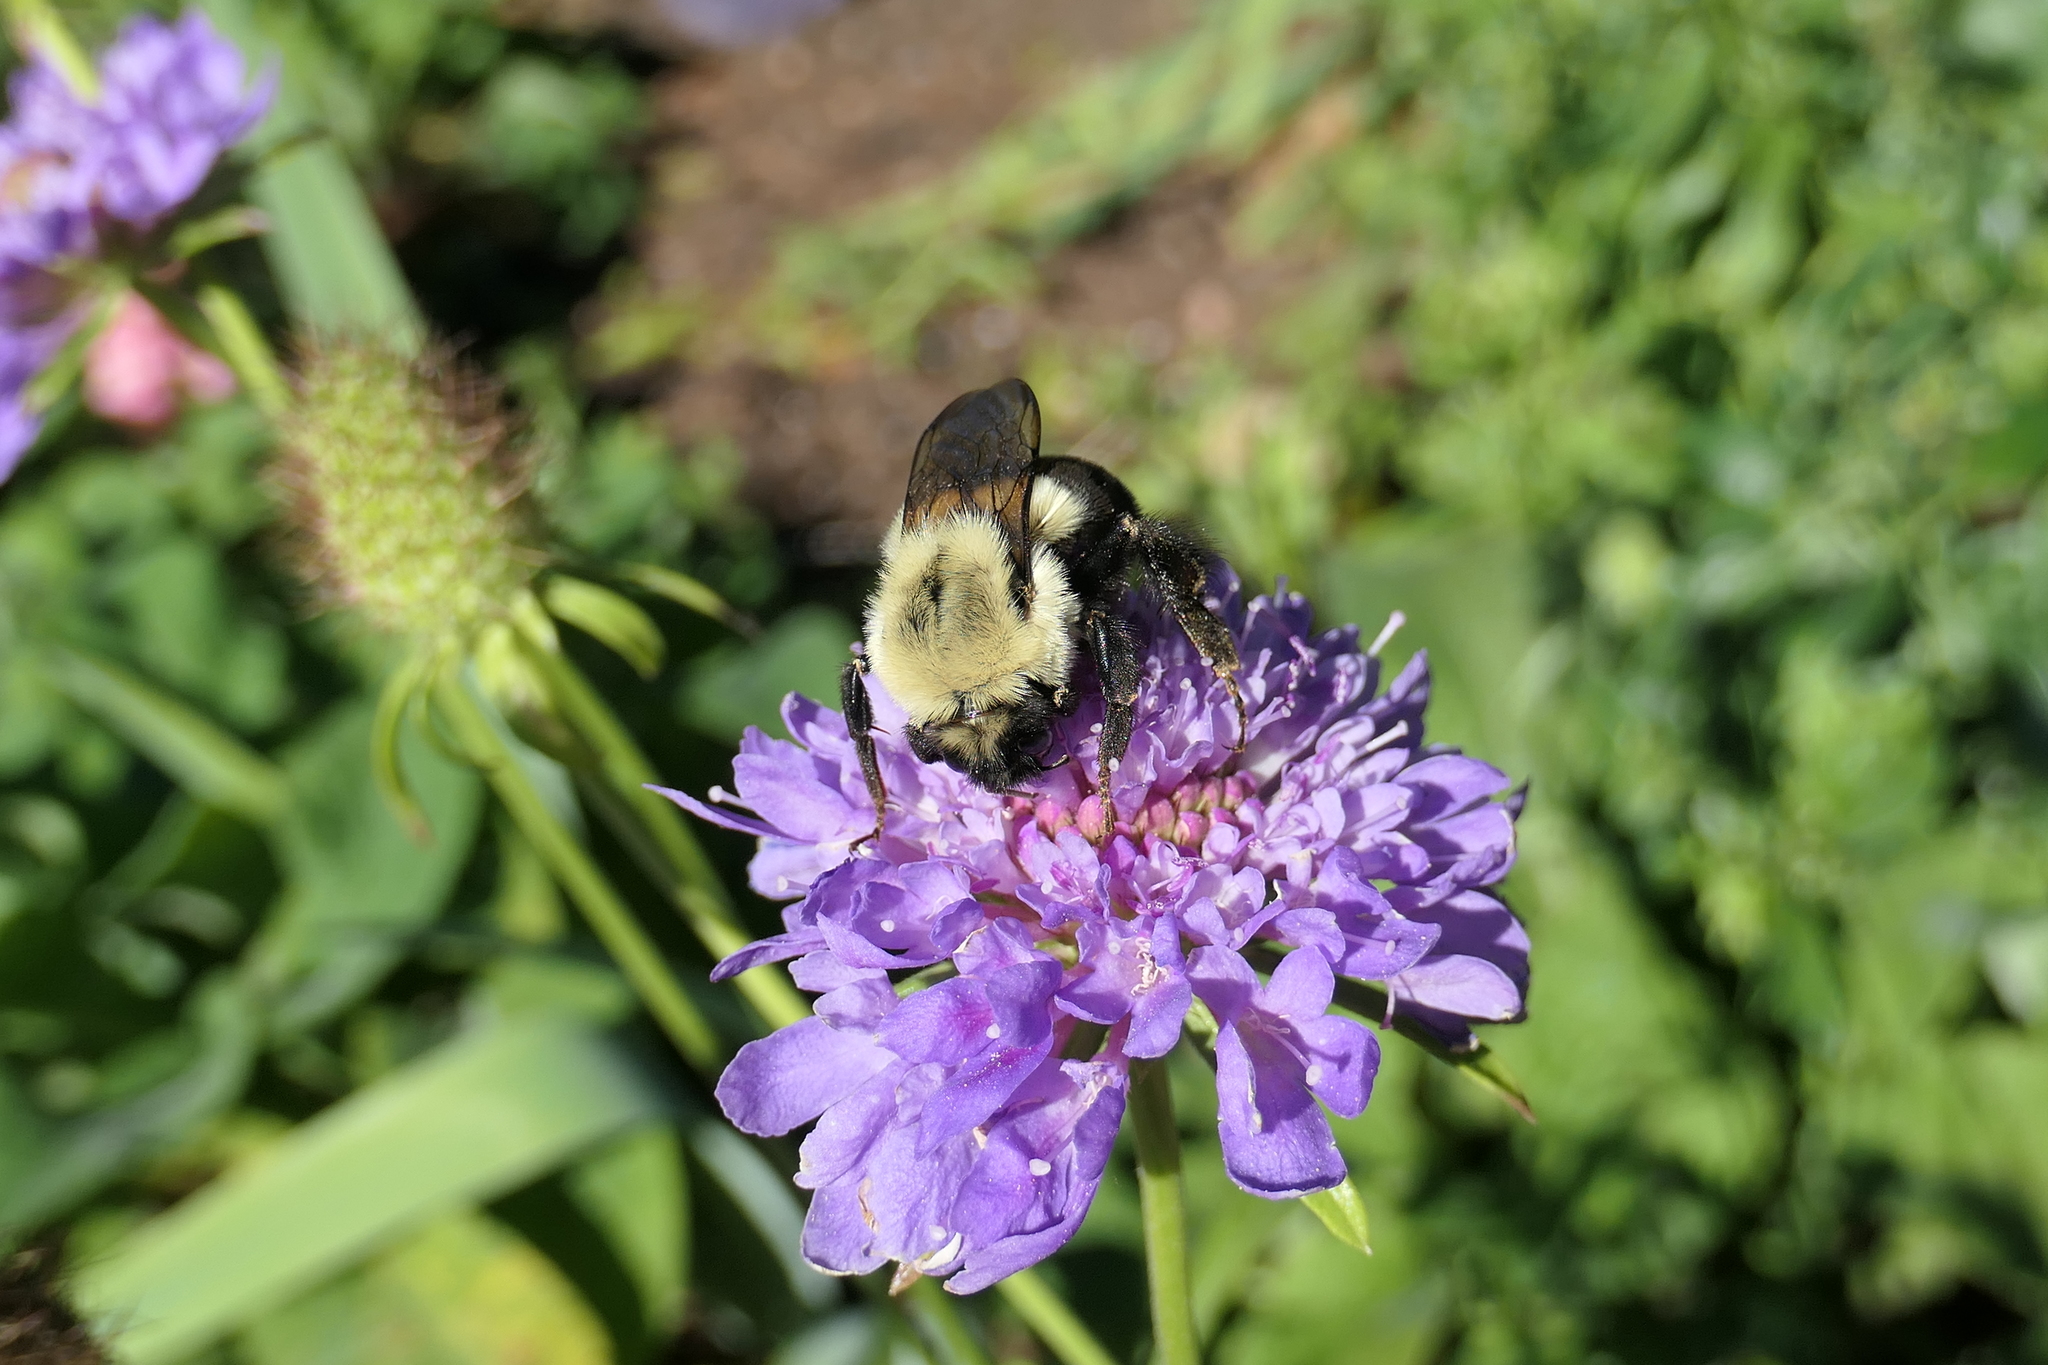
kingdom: Animalia
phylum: Arthropoda
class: Insecta
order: Hymenoptera
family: Apidae
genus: Bombus
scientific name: Bombus impatiens
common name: Common eastern bumble bee
